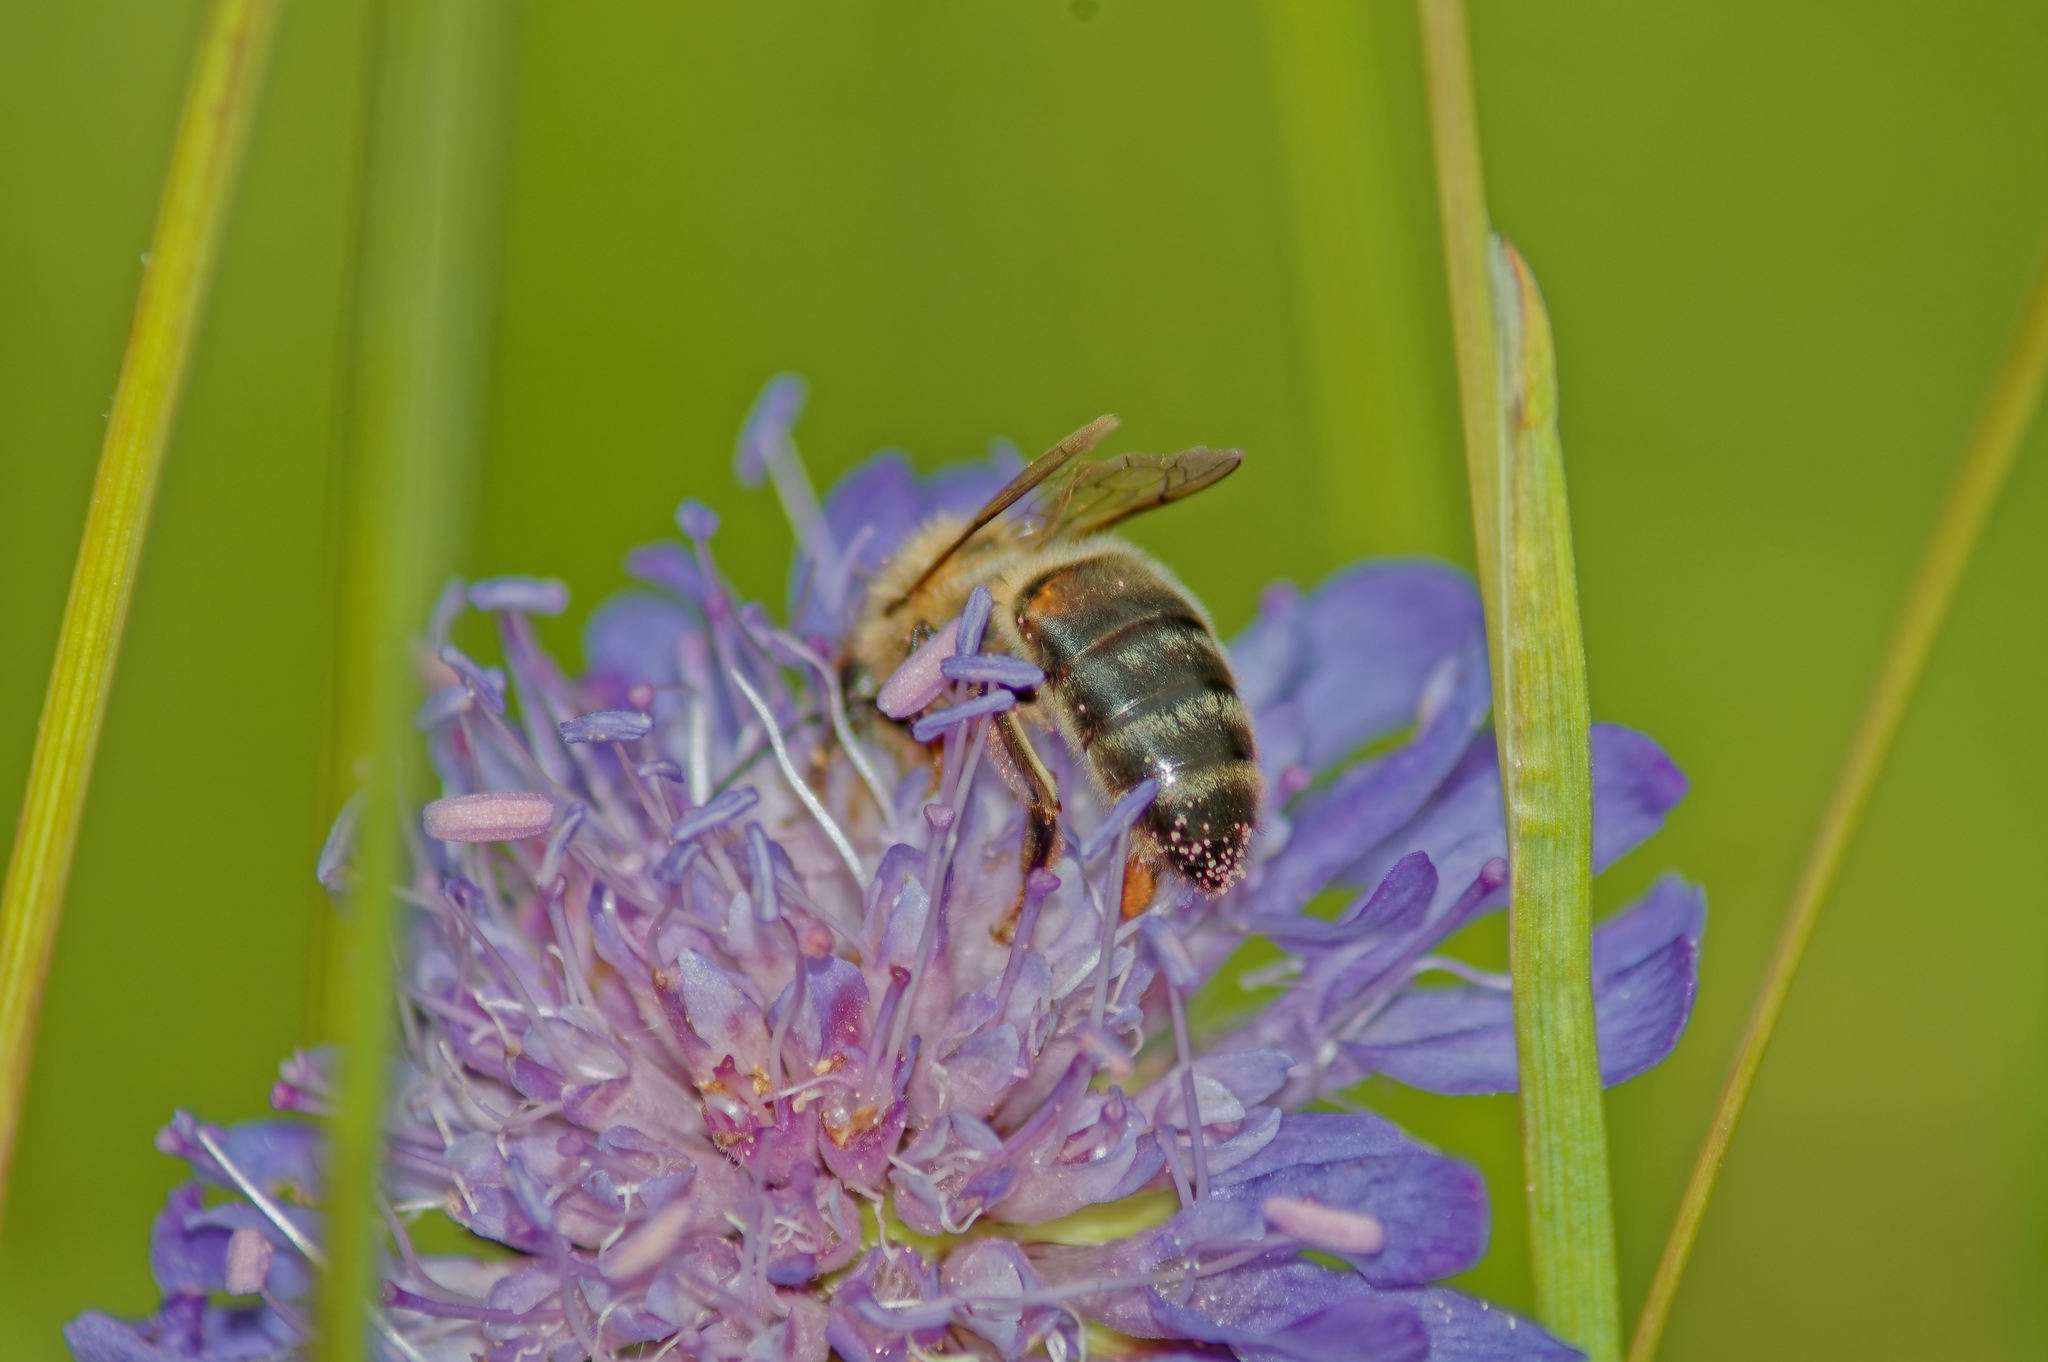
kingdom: Animalia
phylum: Arthropoda
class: Insecta
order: Hymenoptera
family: Apidae
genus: Apis
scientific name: Apis mellifera
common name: Honey bee
